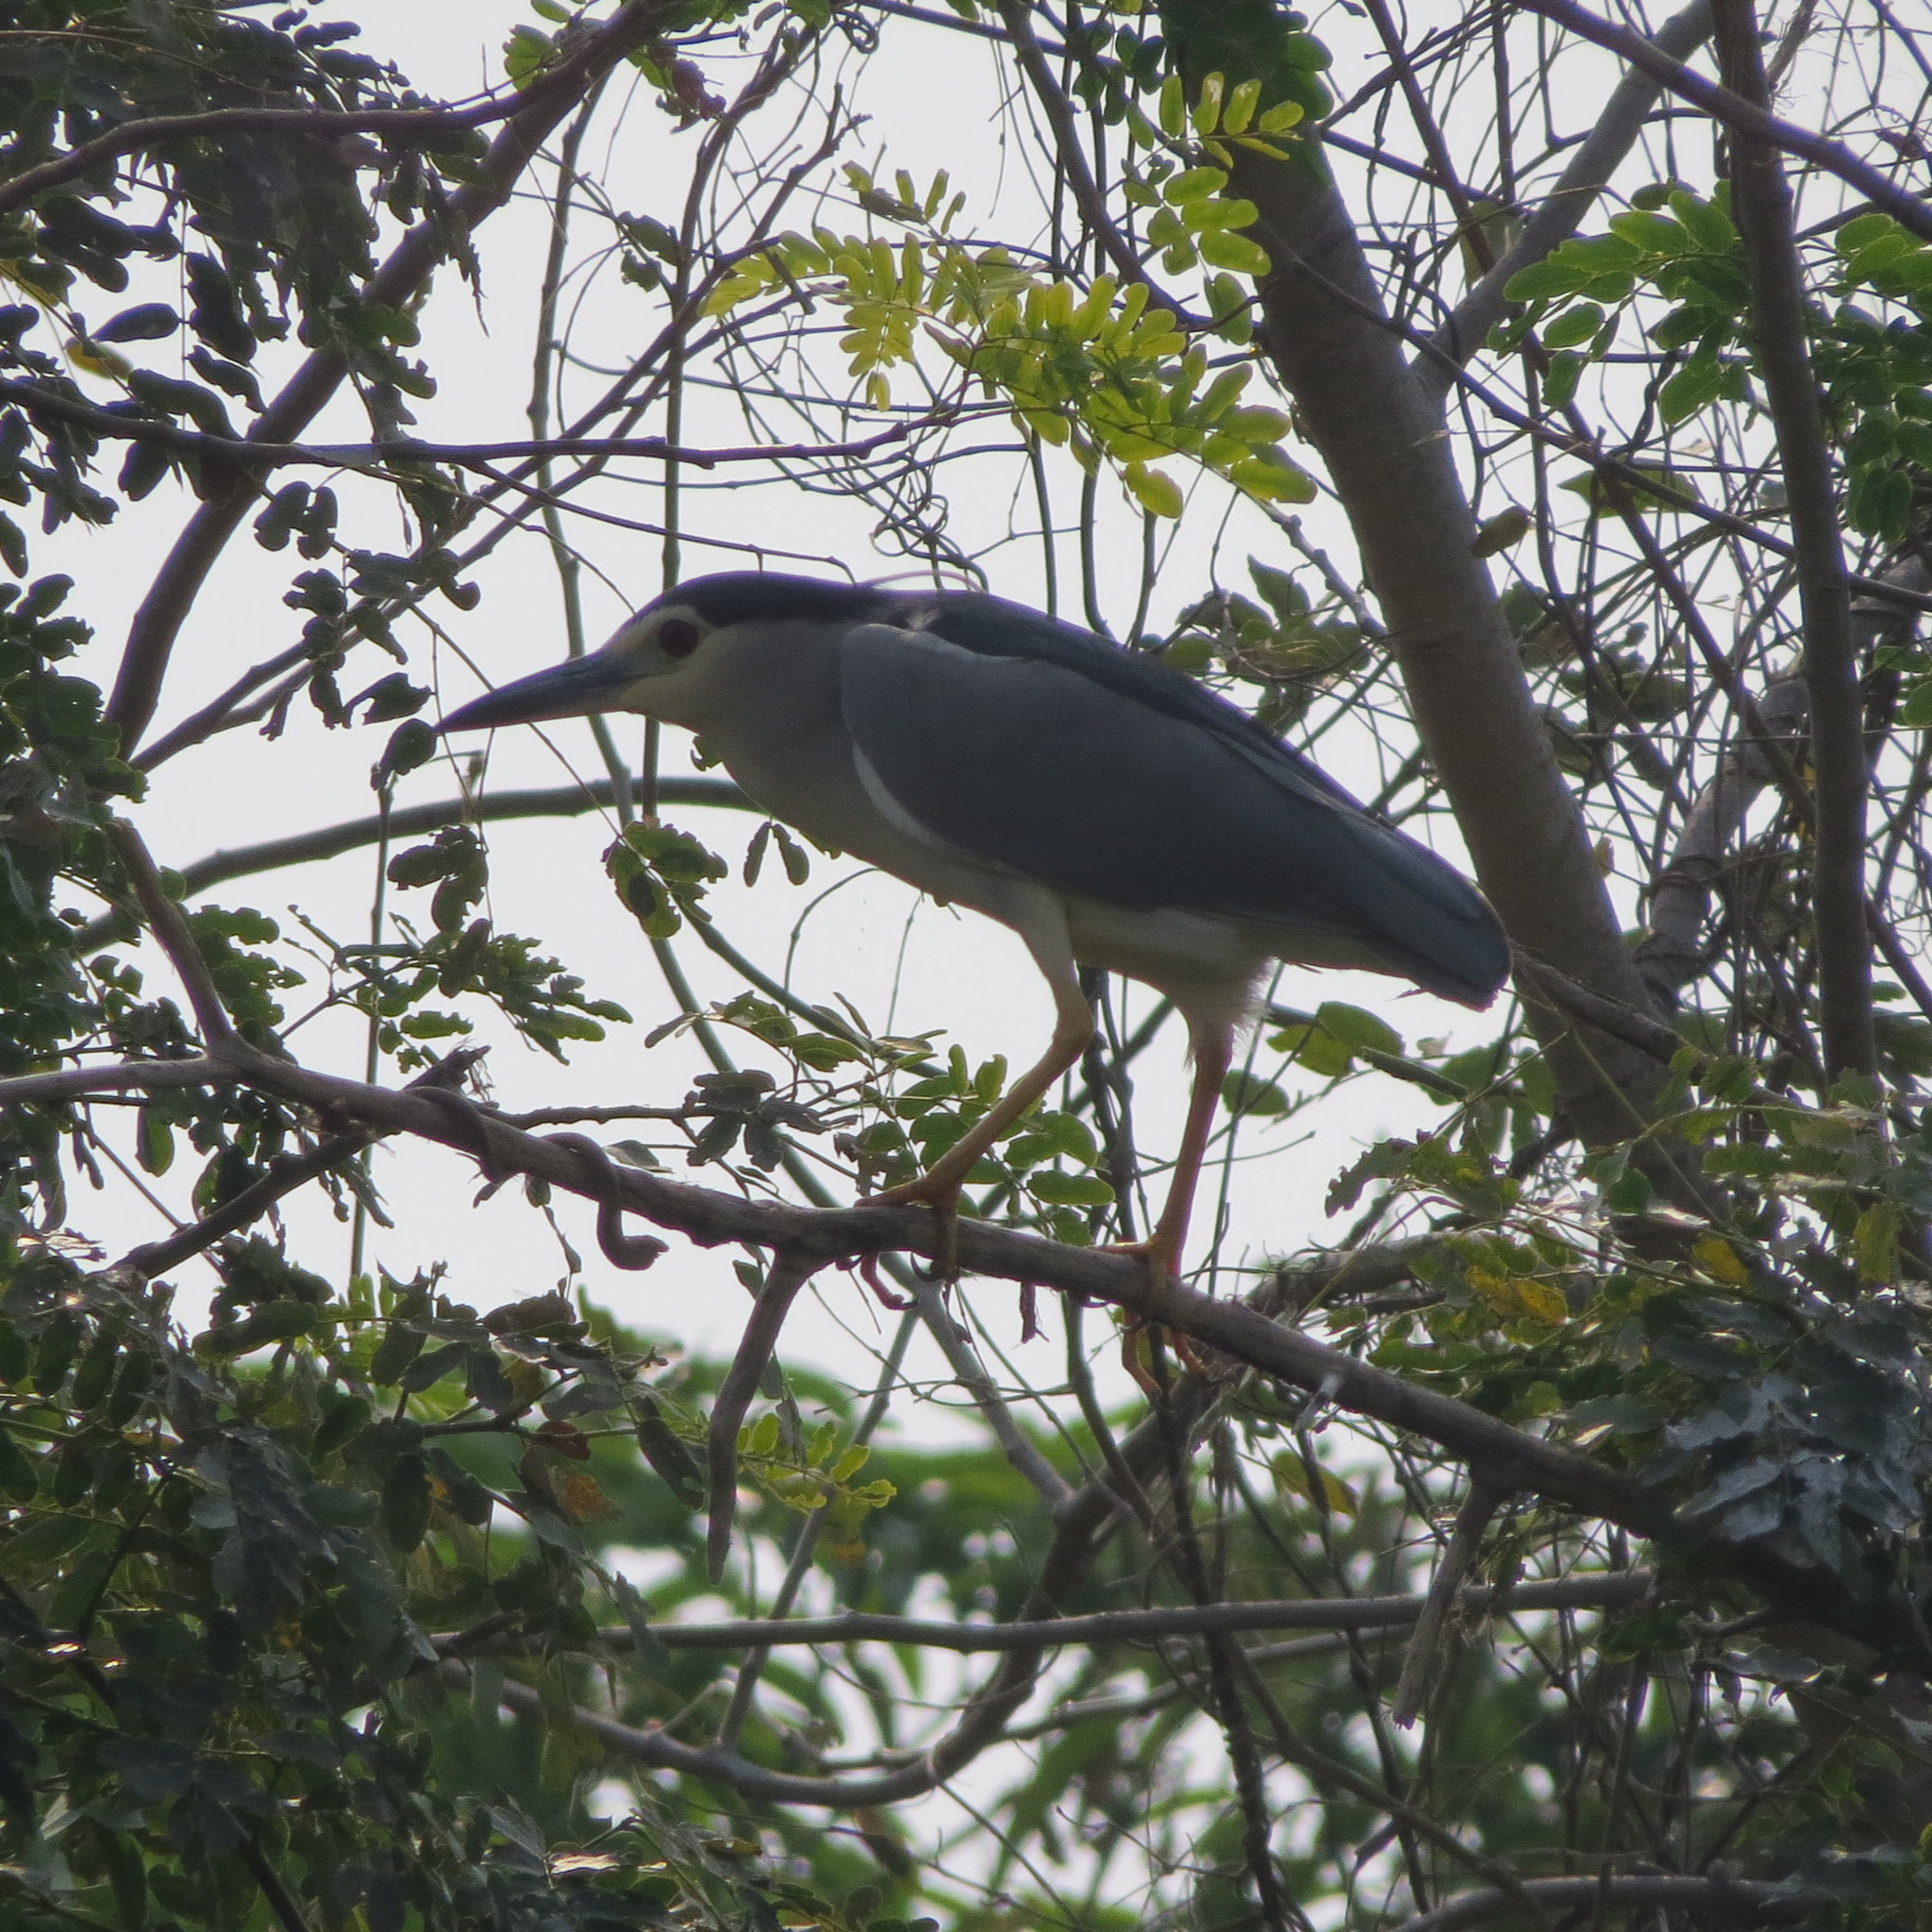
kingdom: Animalia
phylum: Chordata
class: Aves
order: Pelecaniformes
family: Ardeidae
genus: Nycticorax
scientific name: Nycticorax nycticorax
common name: Black-crowned night heron
